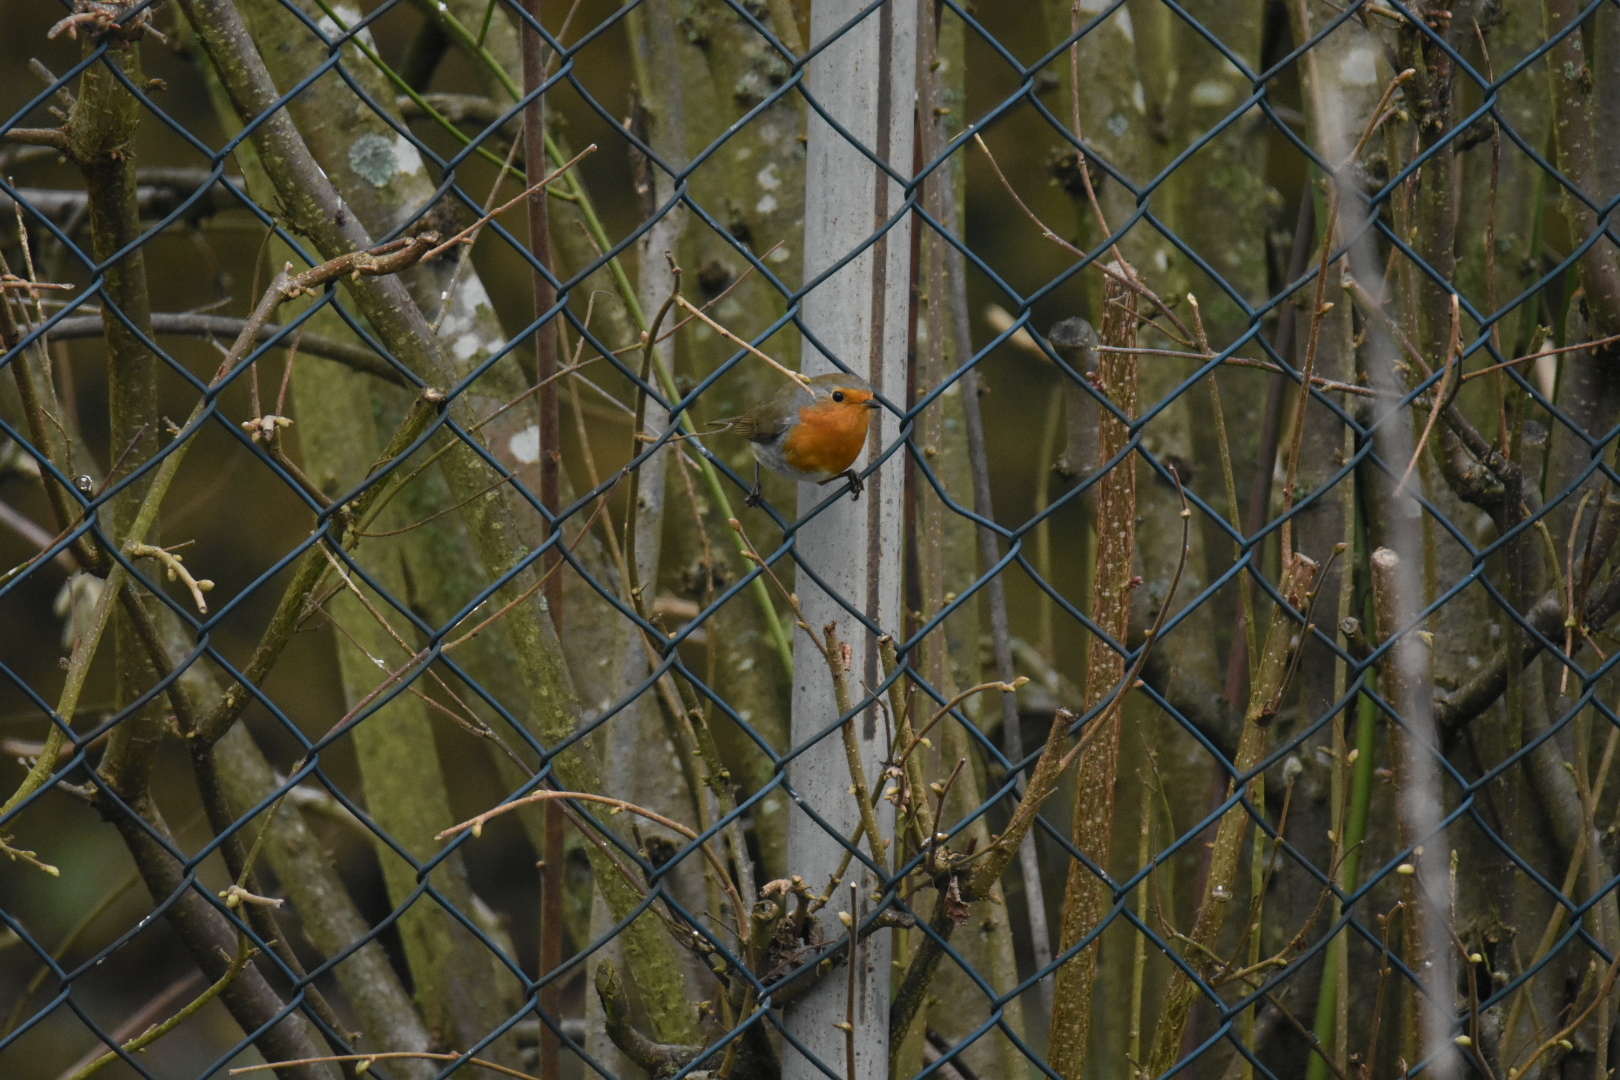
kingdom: Animalia
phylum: Chordata
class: Aves
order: Passeriformes
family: Muscicapidae
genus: Erithacus
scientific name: Erithacus rubecula
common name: European robin
